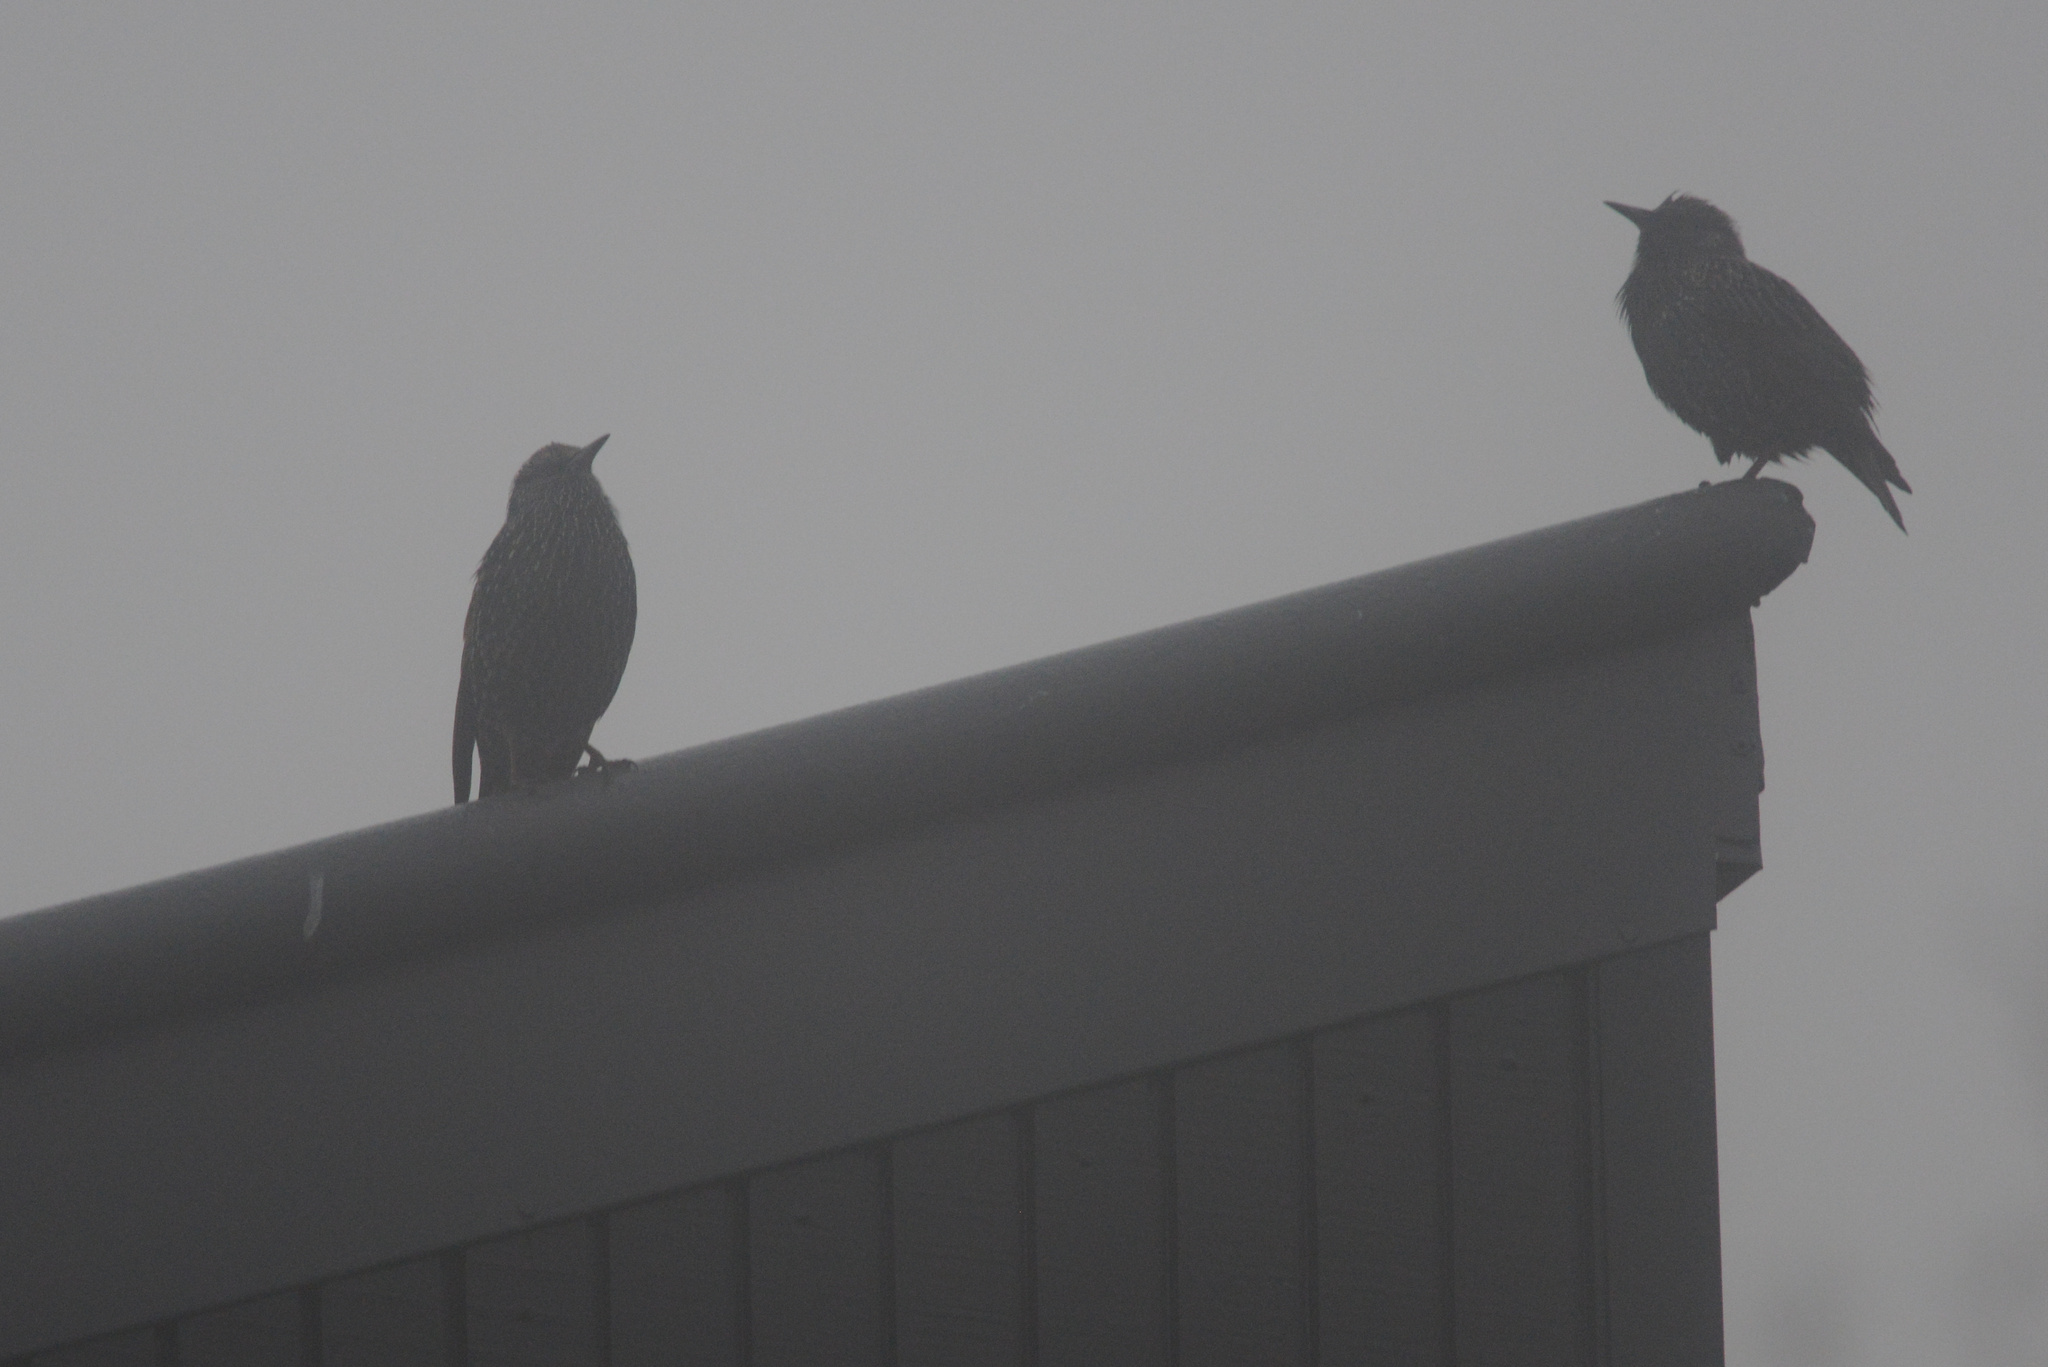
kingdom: Animalia
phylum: Chordata
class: Aves
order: Passeriformes
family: Sturnidae
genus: Sturnus
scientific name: Sturnus vulgaris
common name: Common starling
